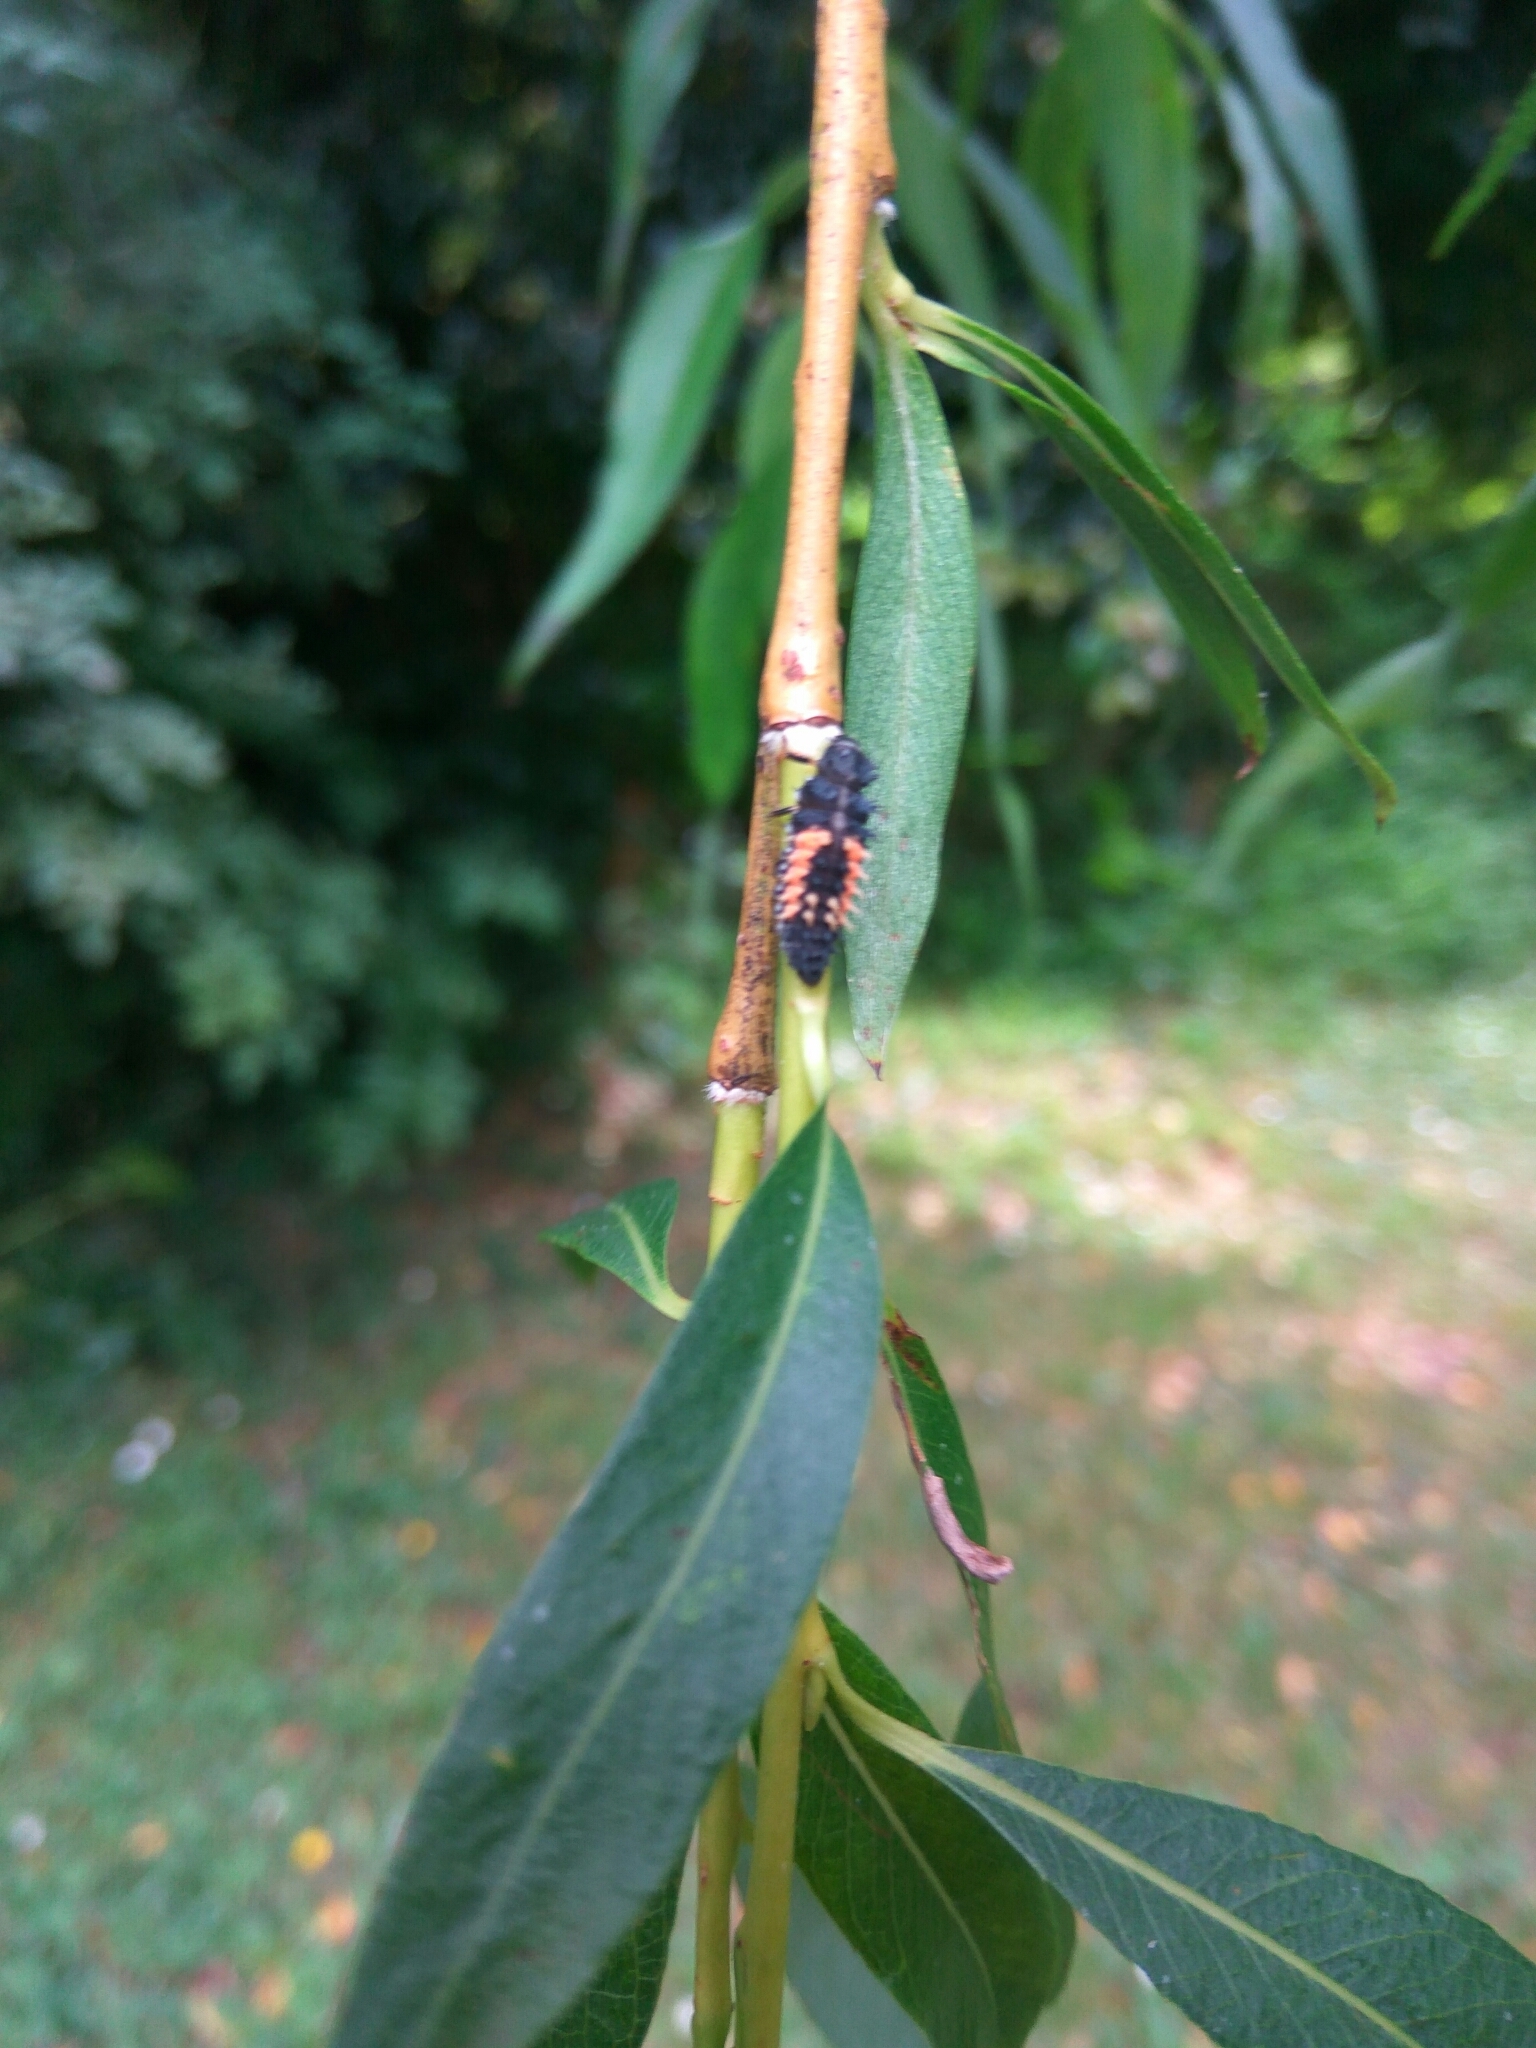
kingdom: Animalia
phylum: Arthropoda
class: Insecta
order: Coleoptera
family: Coccinellidae
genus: Harmonia
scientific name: Harmonia axyridis
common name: Harlequin ladybird
